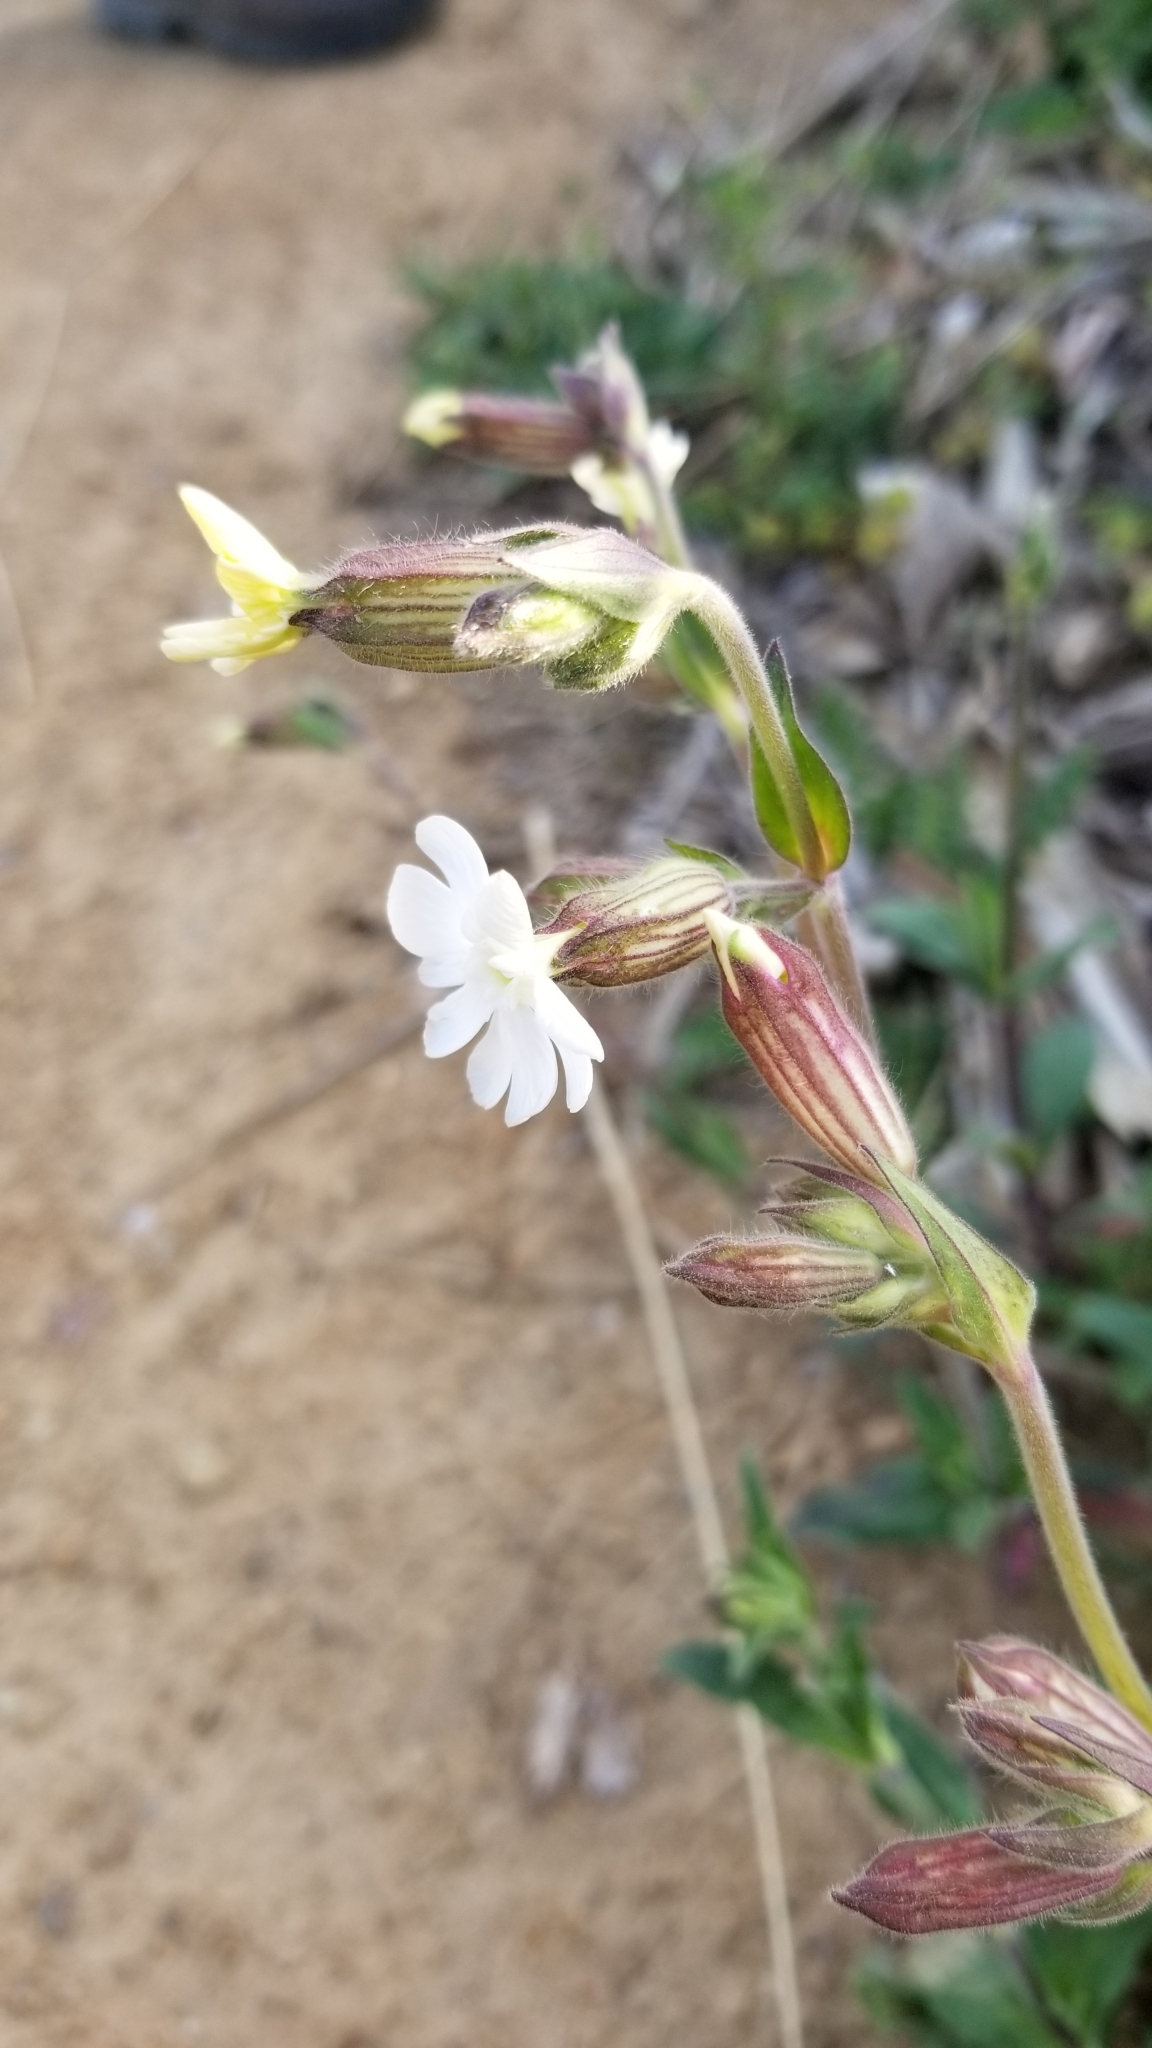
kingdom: Plantae
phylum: Tracheophyta
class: Magnoliopsida
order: Caryophyllales
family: Caryophyllaceae
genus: Silene
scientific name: Silene latifolia
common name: White campion
